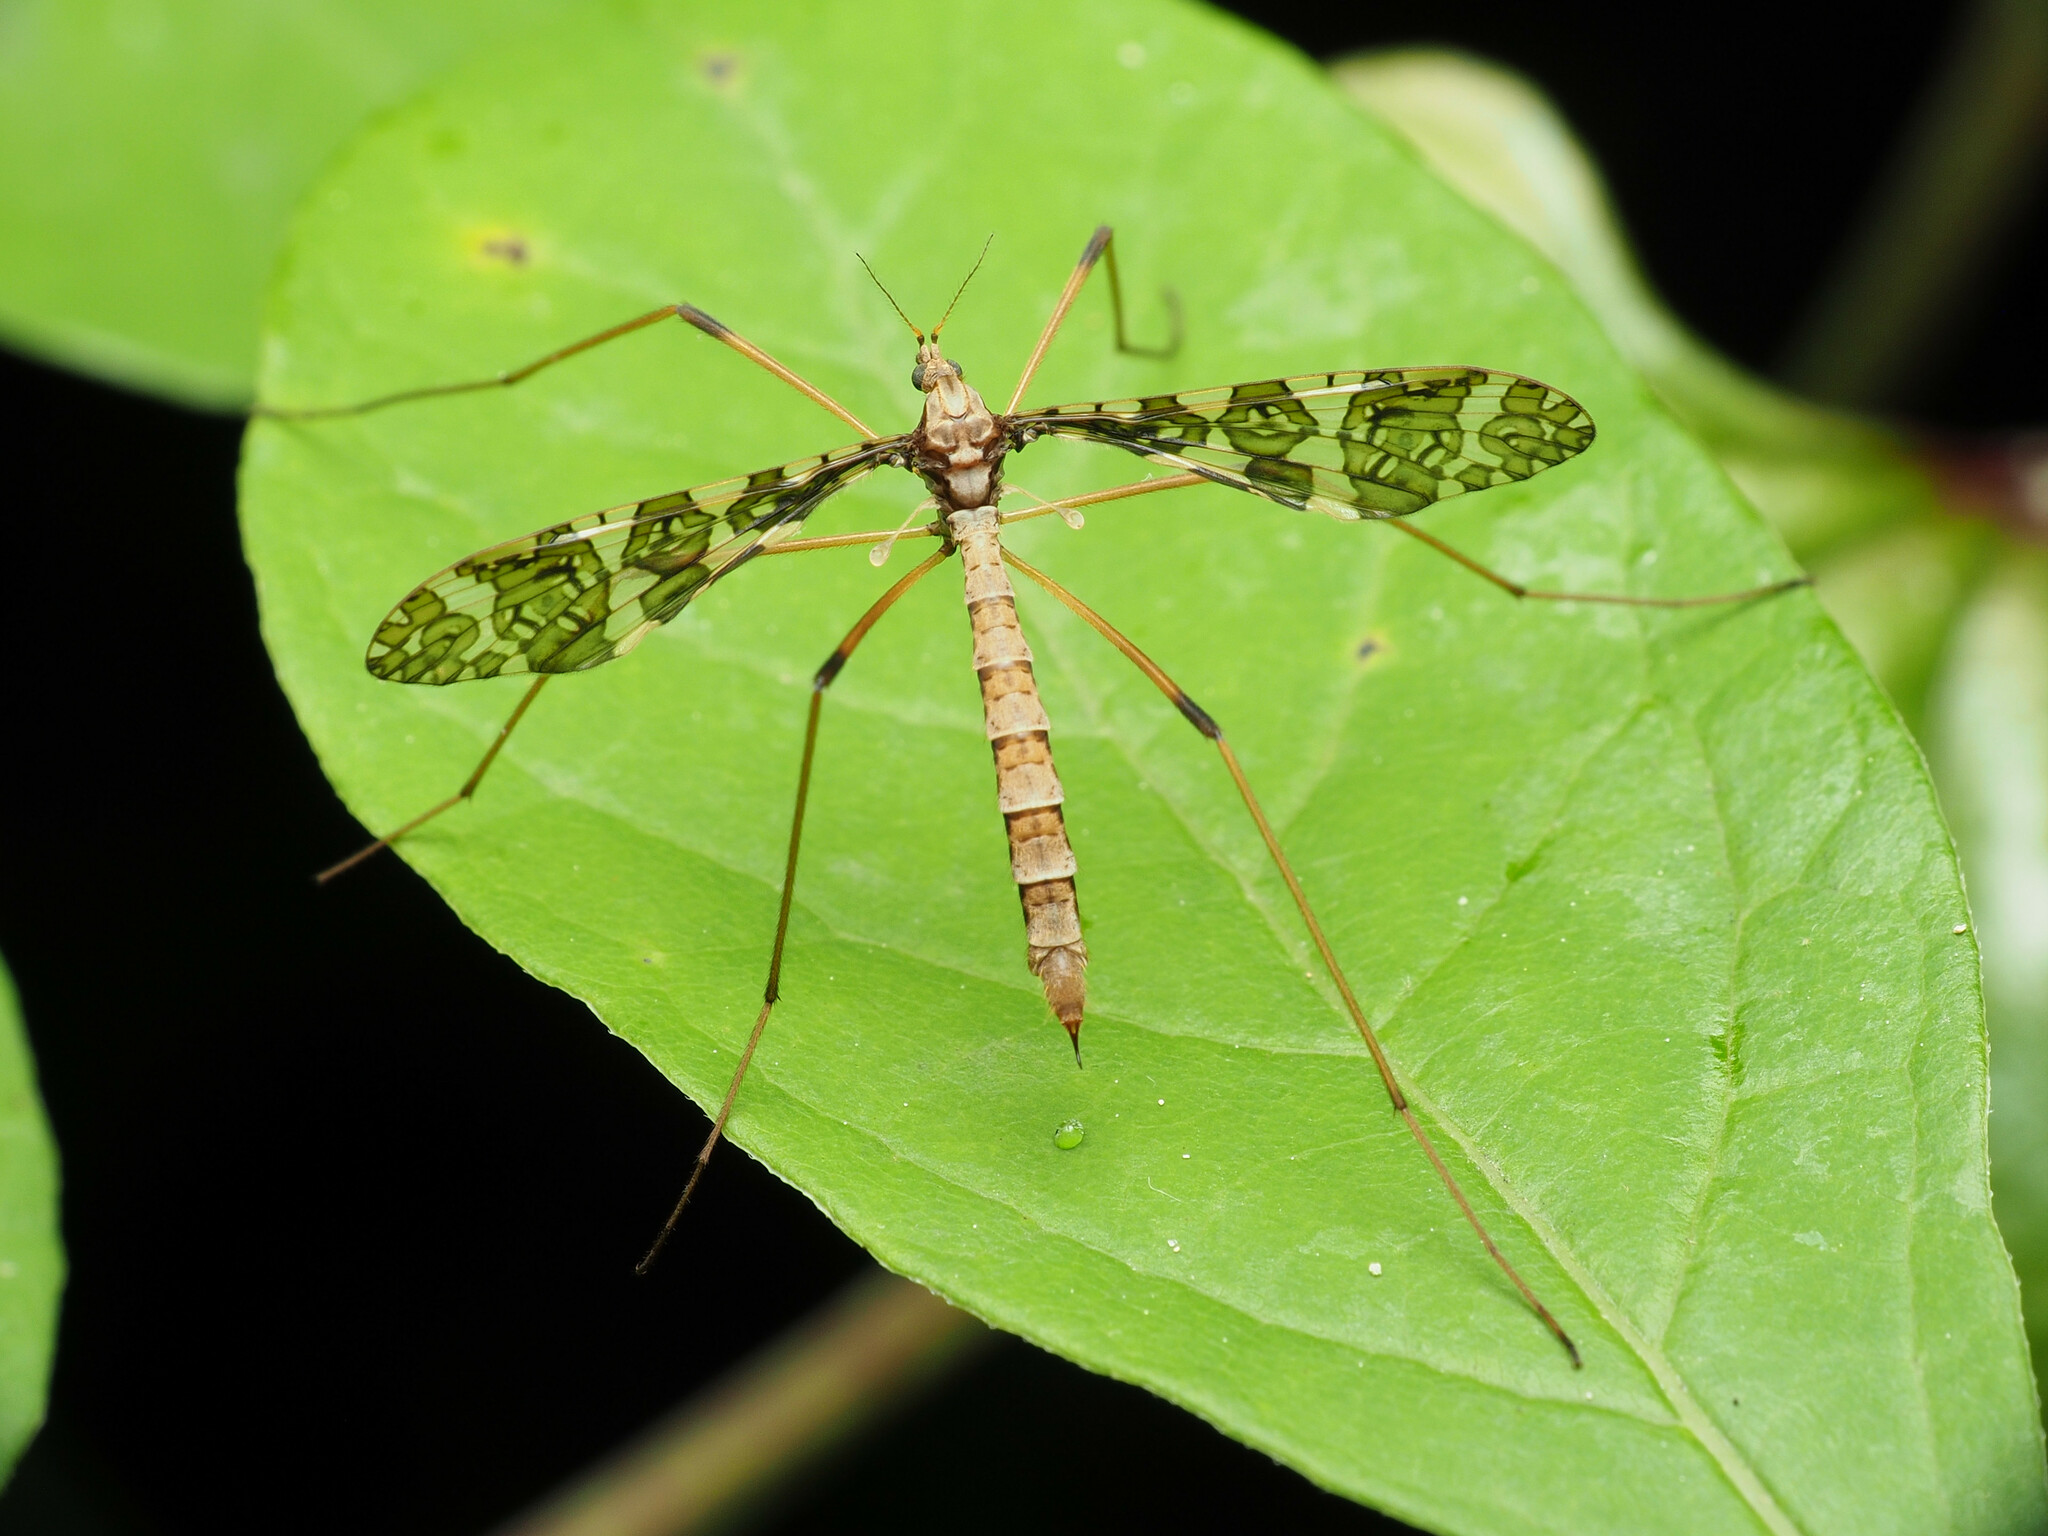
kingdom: Animalia
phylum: Arthropoda
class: Insecta
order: Diptera
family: Limoniidae
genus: Epiphragma
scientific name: Epiphragma fasciapenne
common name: Band-winged crane fly
